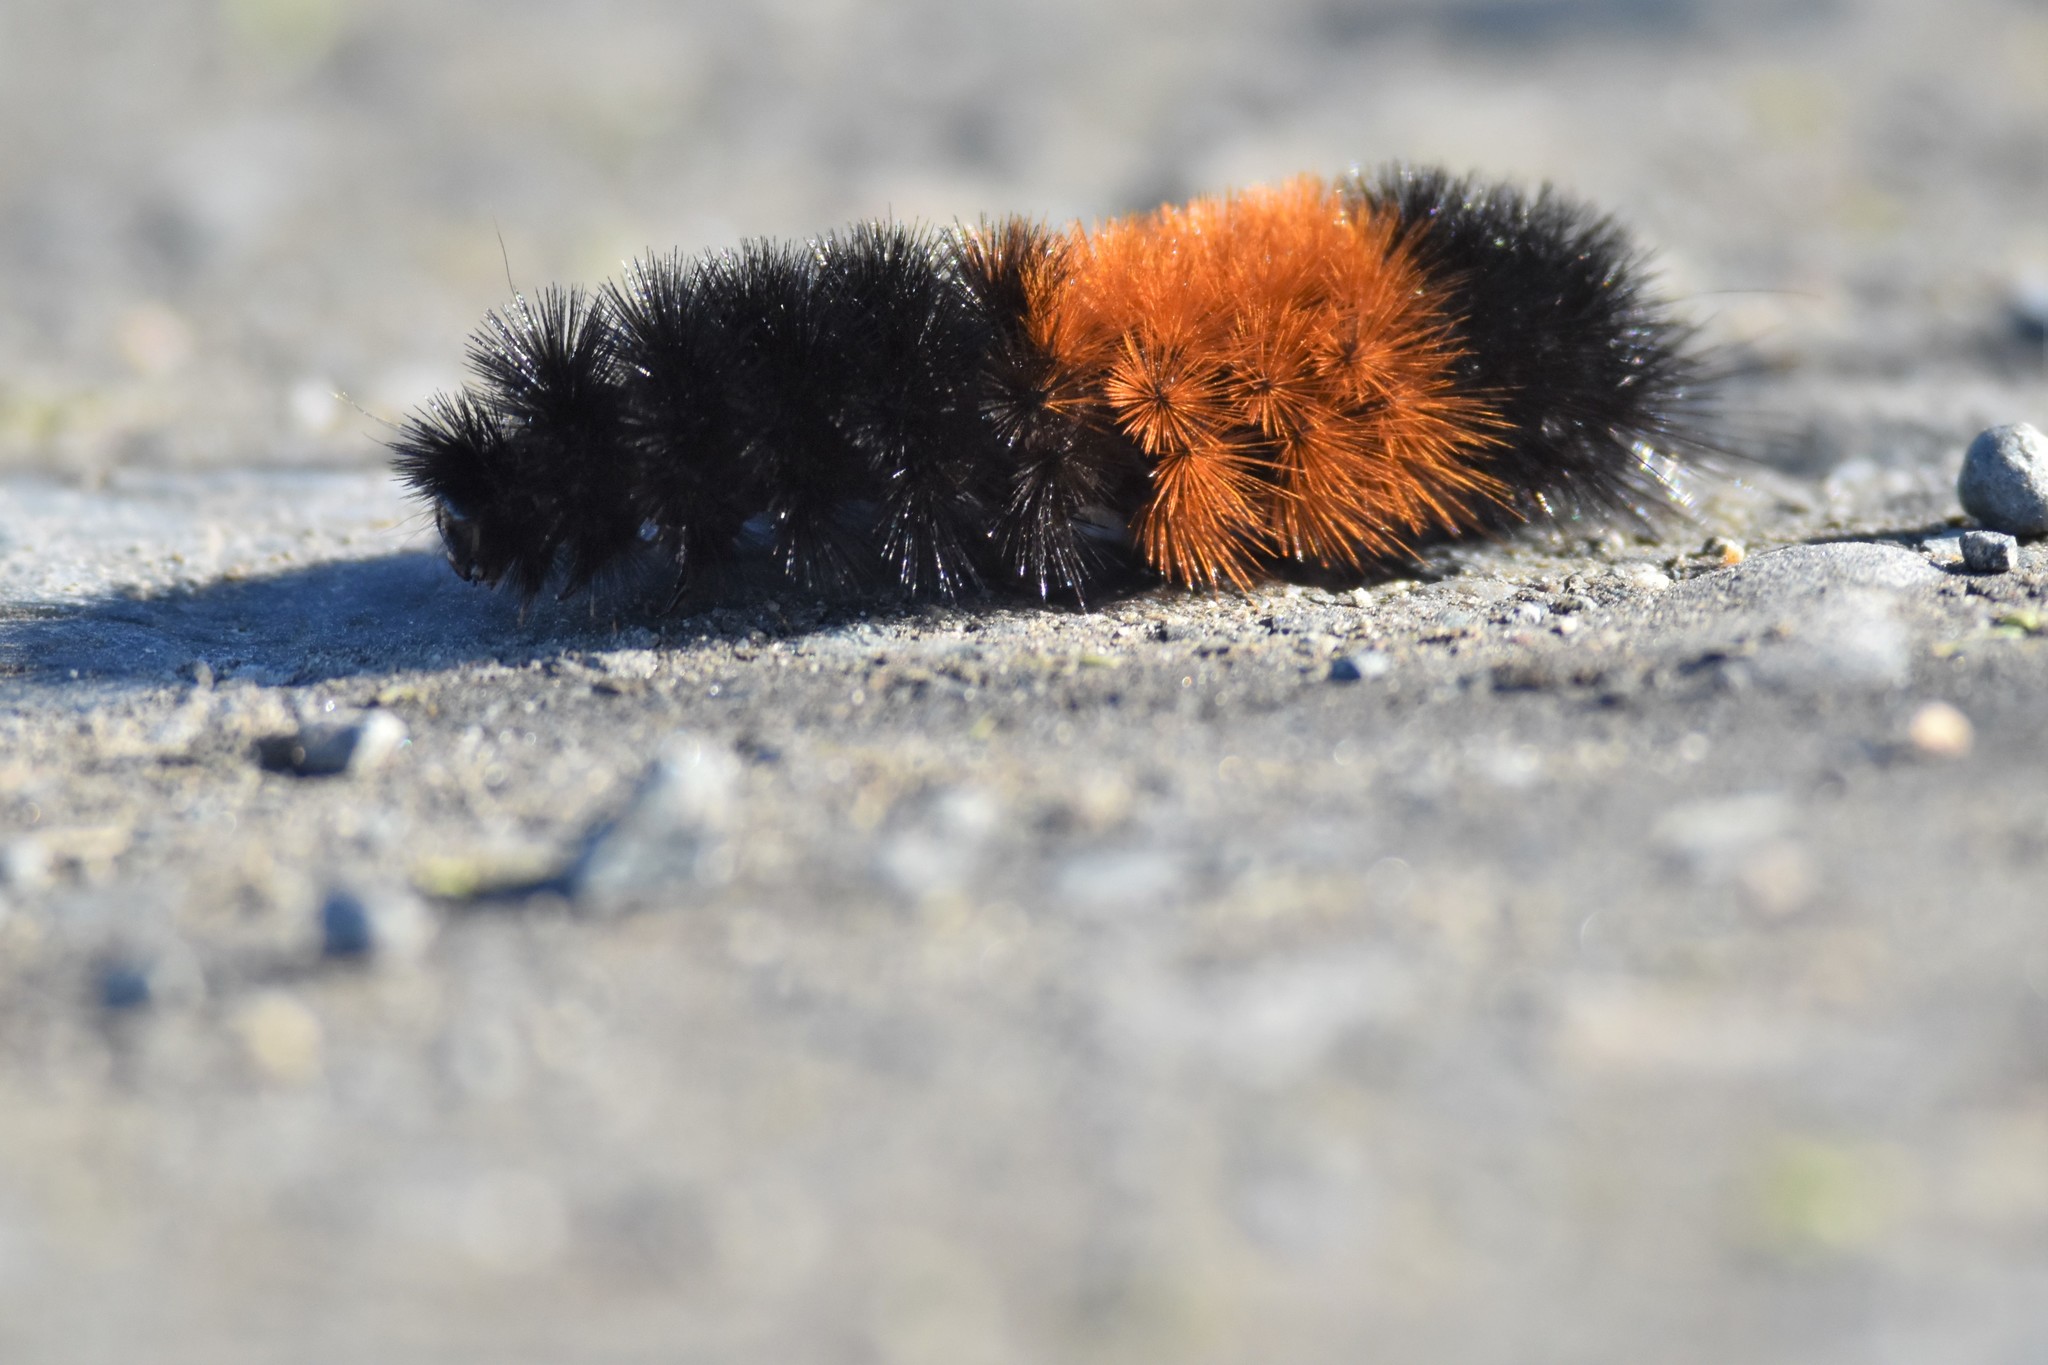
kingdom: Animalia
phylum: Arthropoda
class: Insecta
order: Lepidoptera
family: Erebidae
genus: Pyrrharctia
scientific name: Pyrrharctia isabella
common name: Isabella tiger moth
